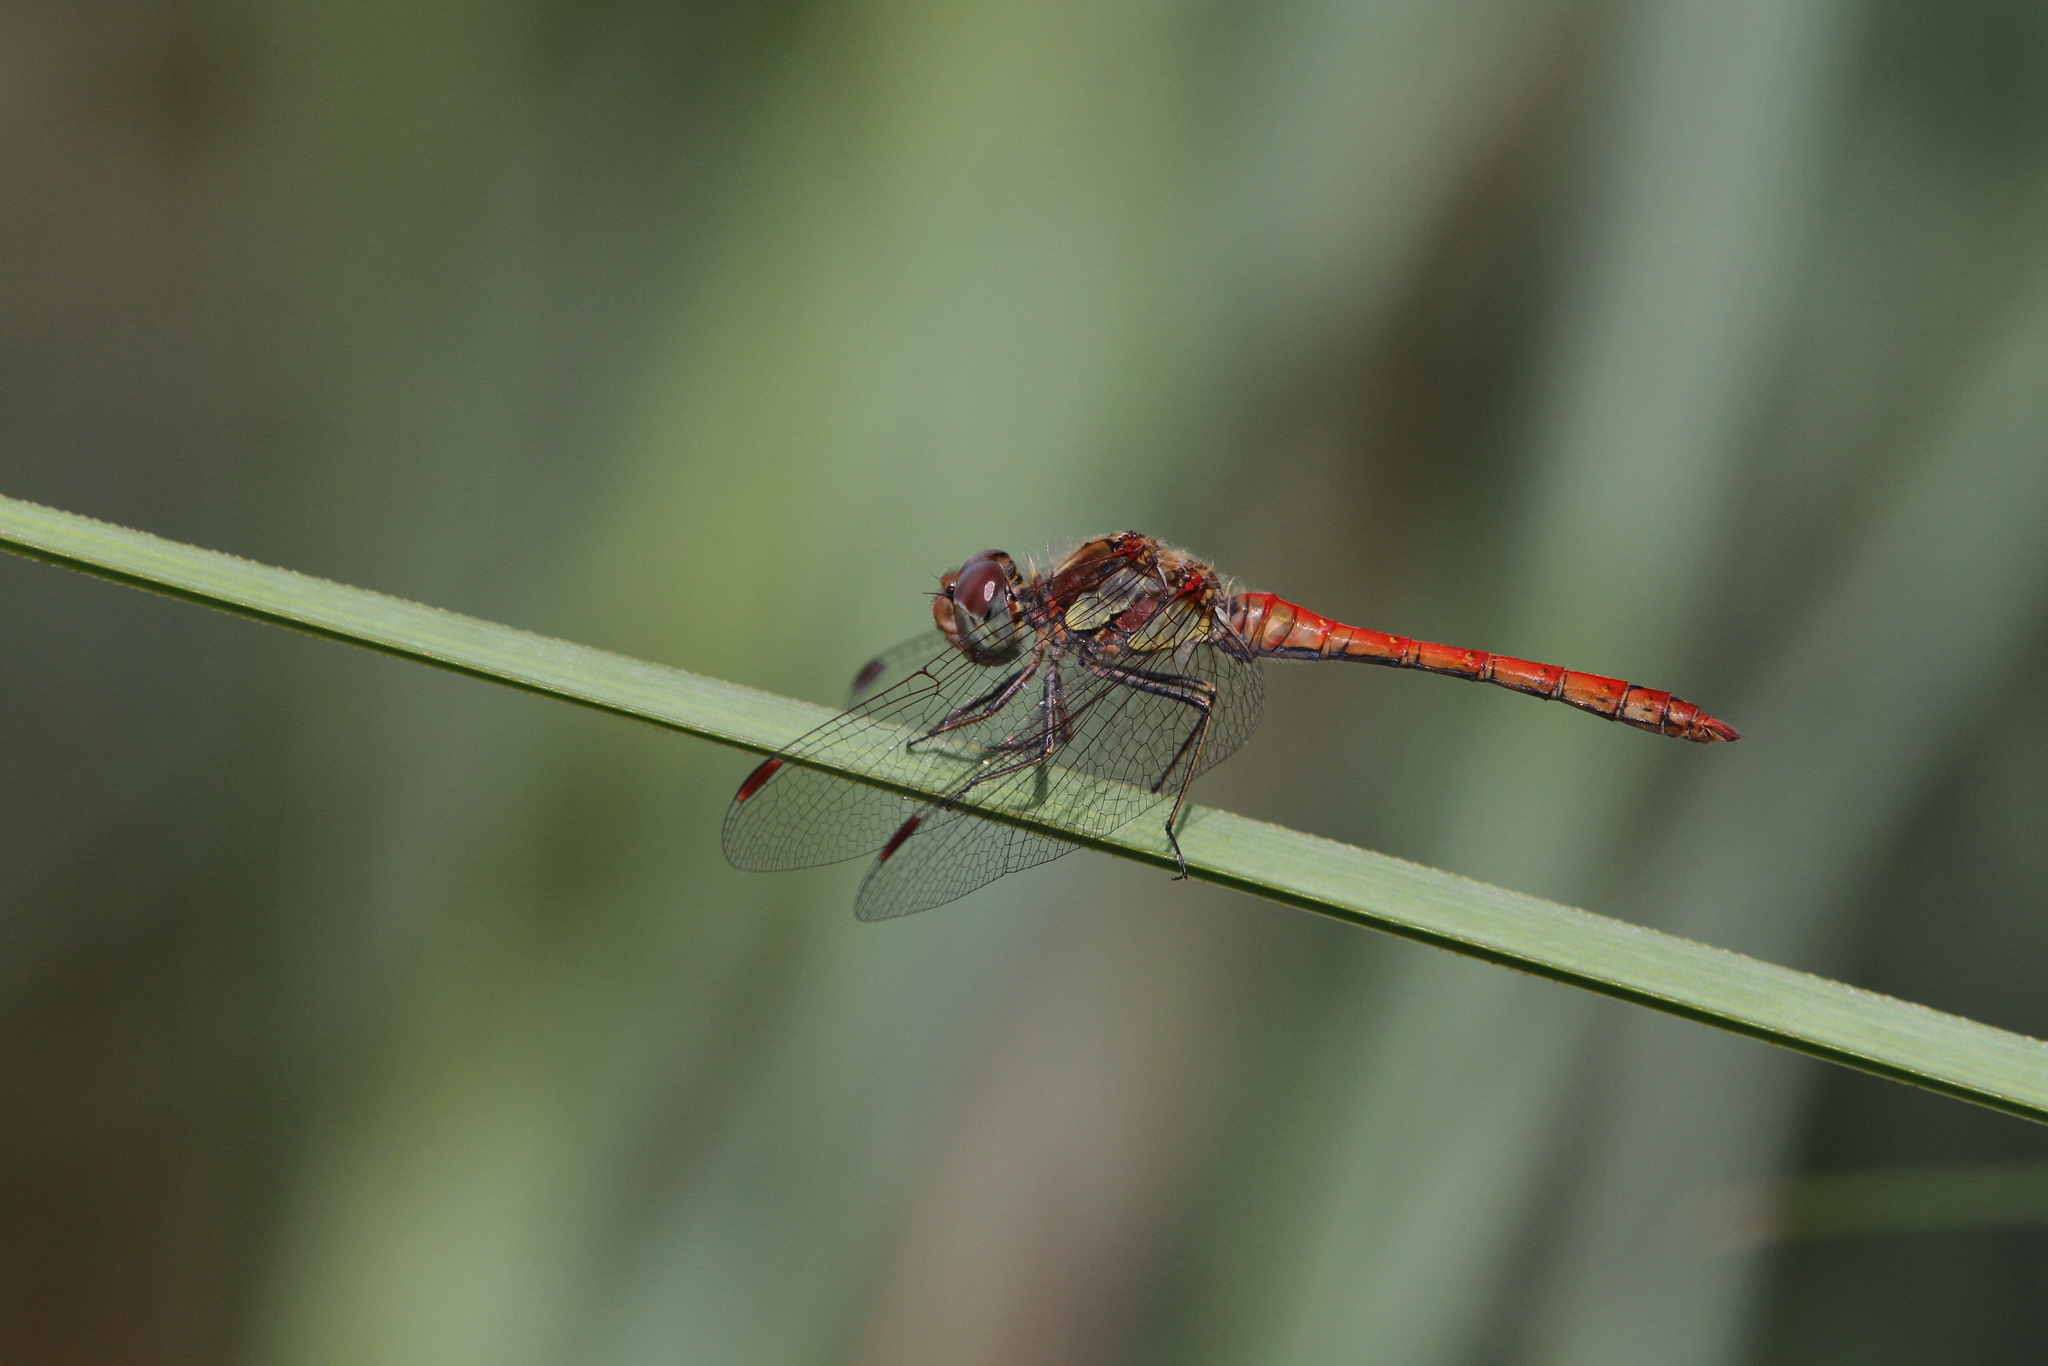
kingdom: Animalia
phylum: Arthropoda
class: Insecta
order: Odonata
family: Libellulidae
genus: Sympetrum
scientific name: Sympetrum striolatum
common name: Common darter
